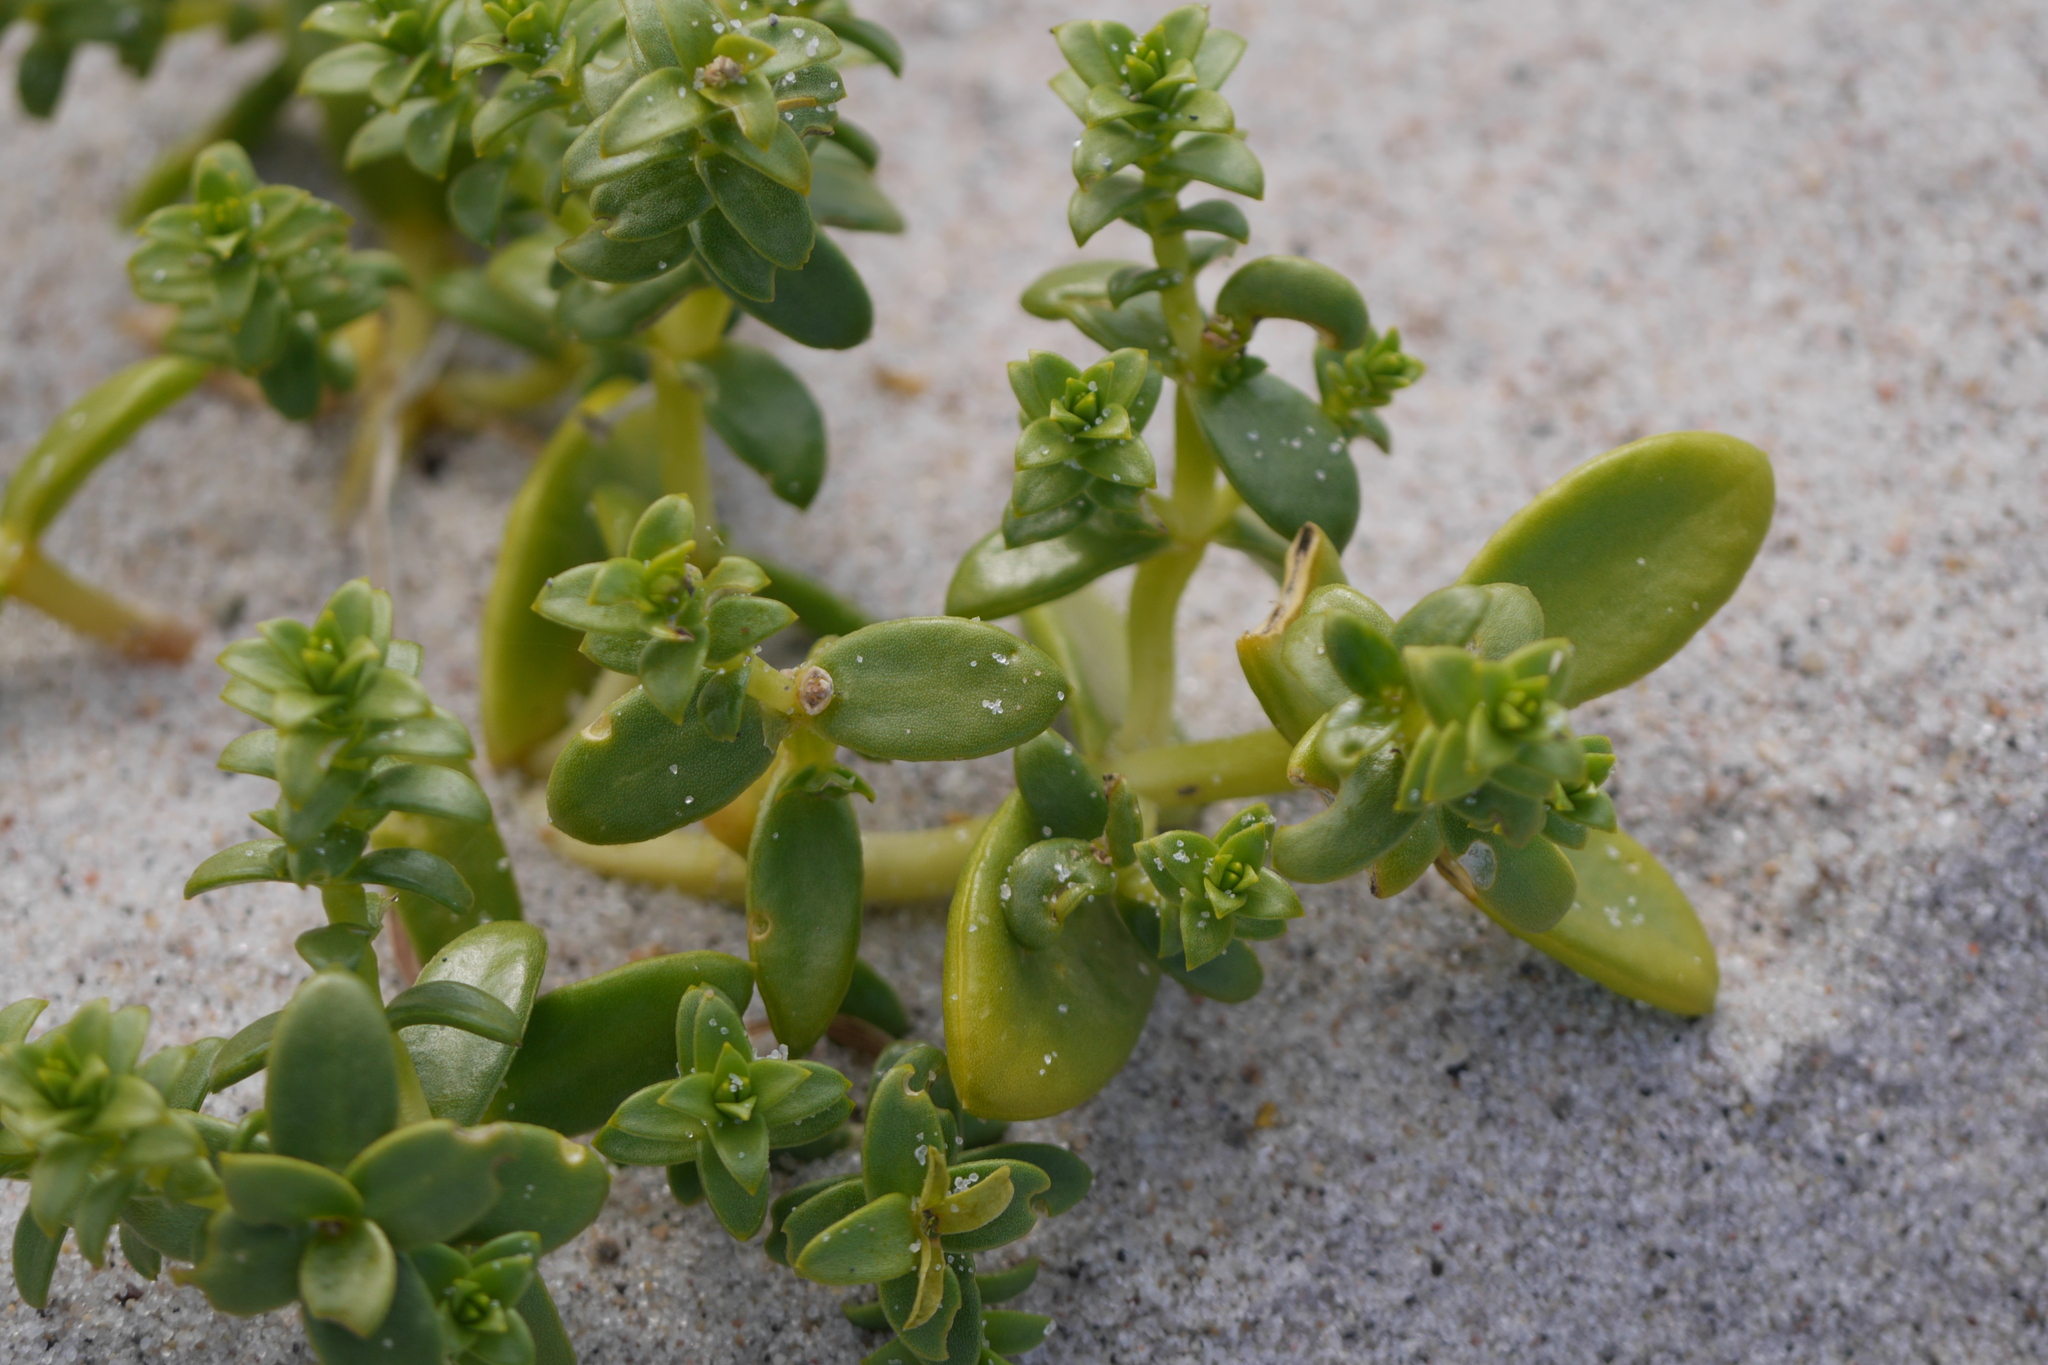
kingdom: Plantae
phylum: Tracheophyta
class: Magnoliopsida
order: Caryophyllales
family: Caryophyllaceae
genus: Honckenya
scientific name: Honckenya peploides
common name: Sea sandwort
